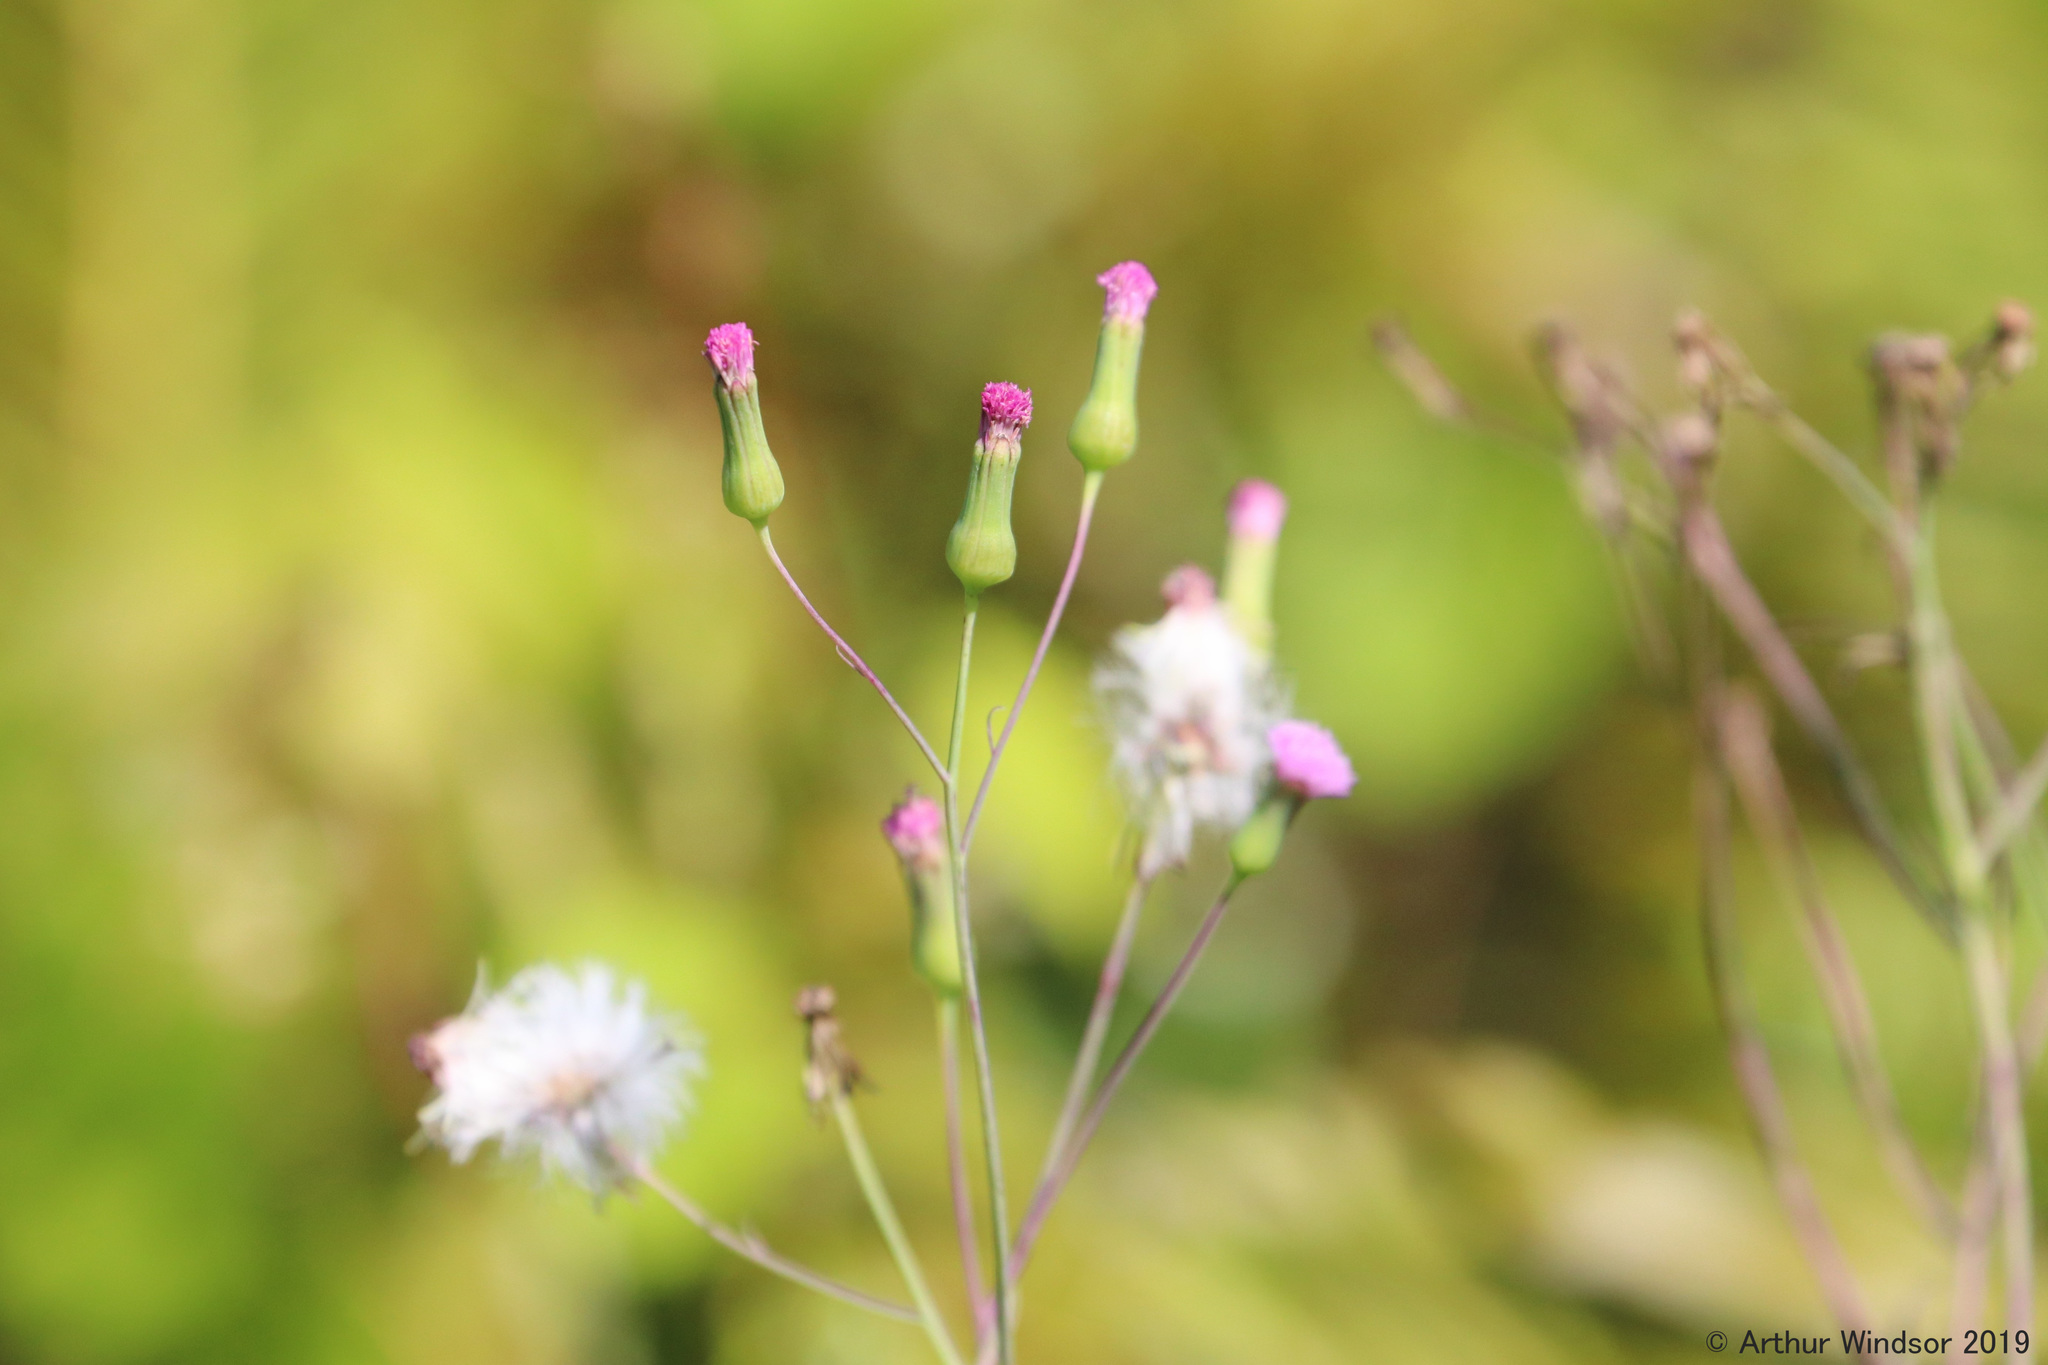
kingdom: Plantae
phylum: Tracheophyta
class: Magnoliopsida
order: Asterales
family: Asteraceae
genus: Emilia
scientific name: Emilia sonchifolia
